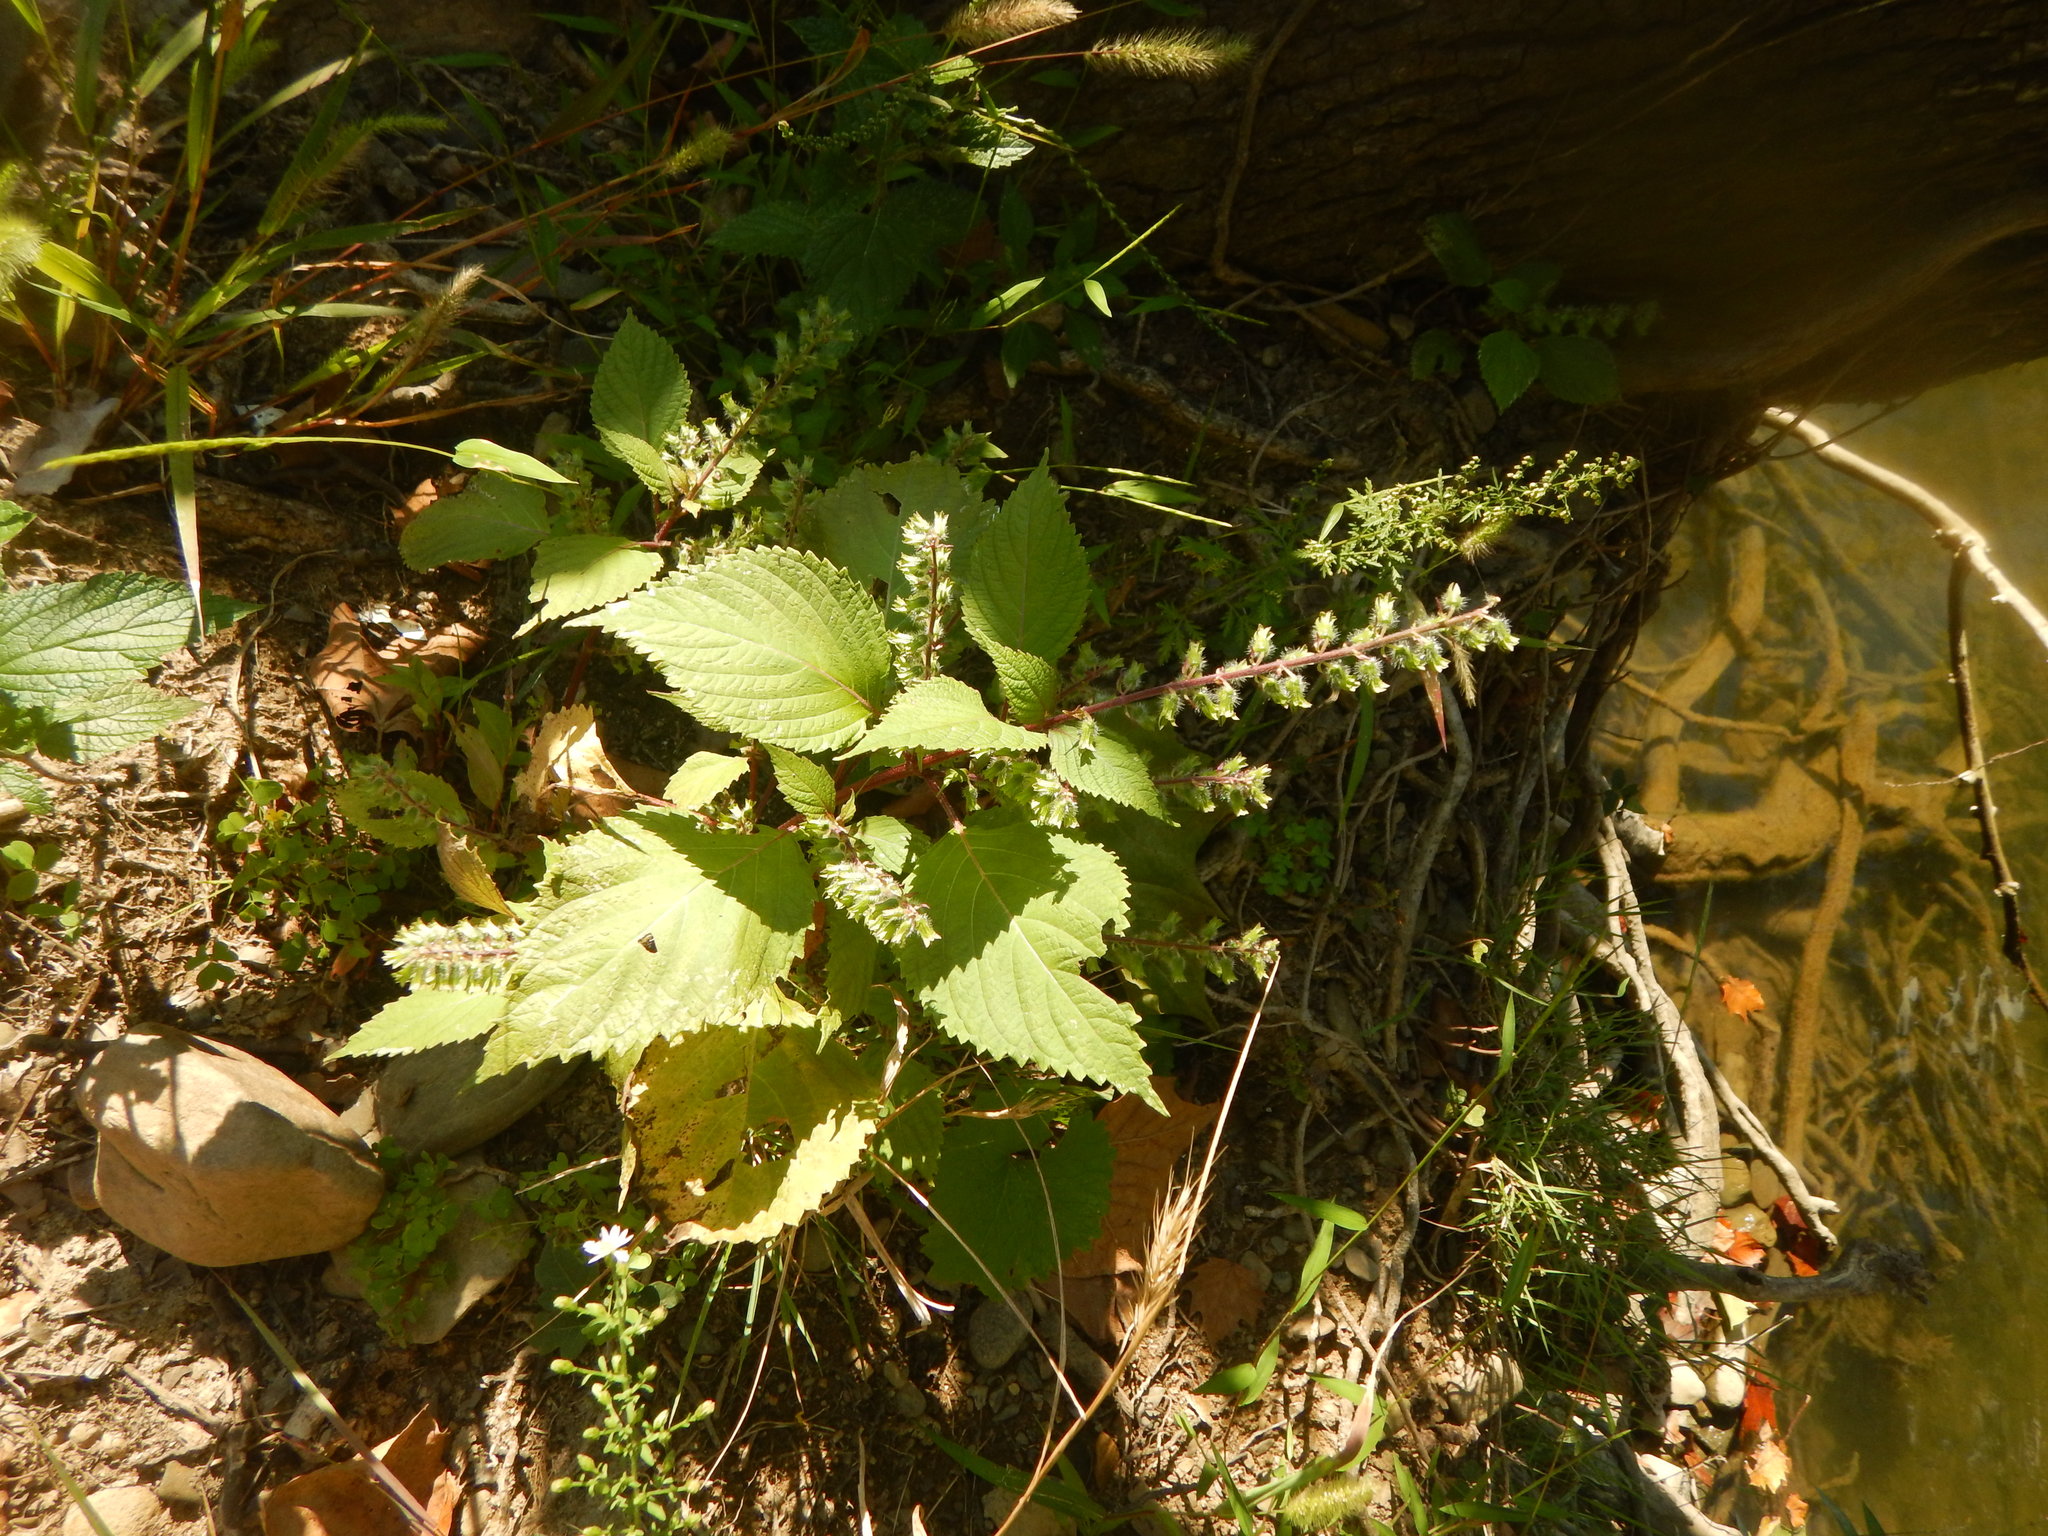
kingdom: Plantae
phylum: Tracheophyta
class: Magnoliopsida
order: Lamiales
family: Lamiaceae
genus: Perilla
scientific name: Perilla frutescens
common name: Perilla
